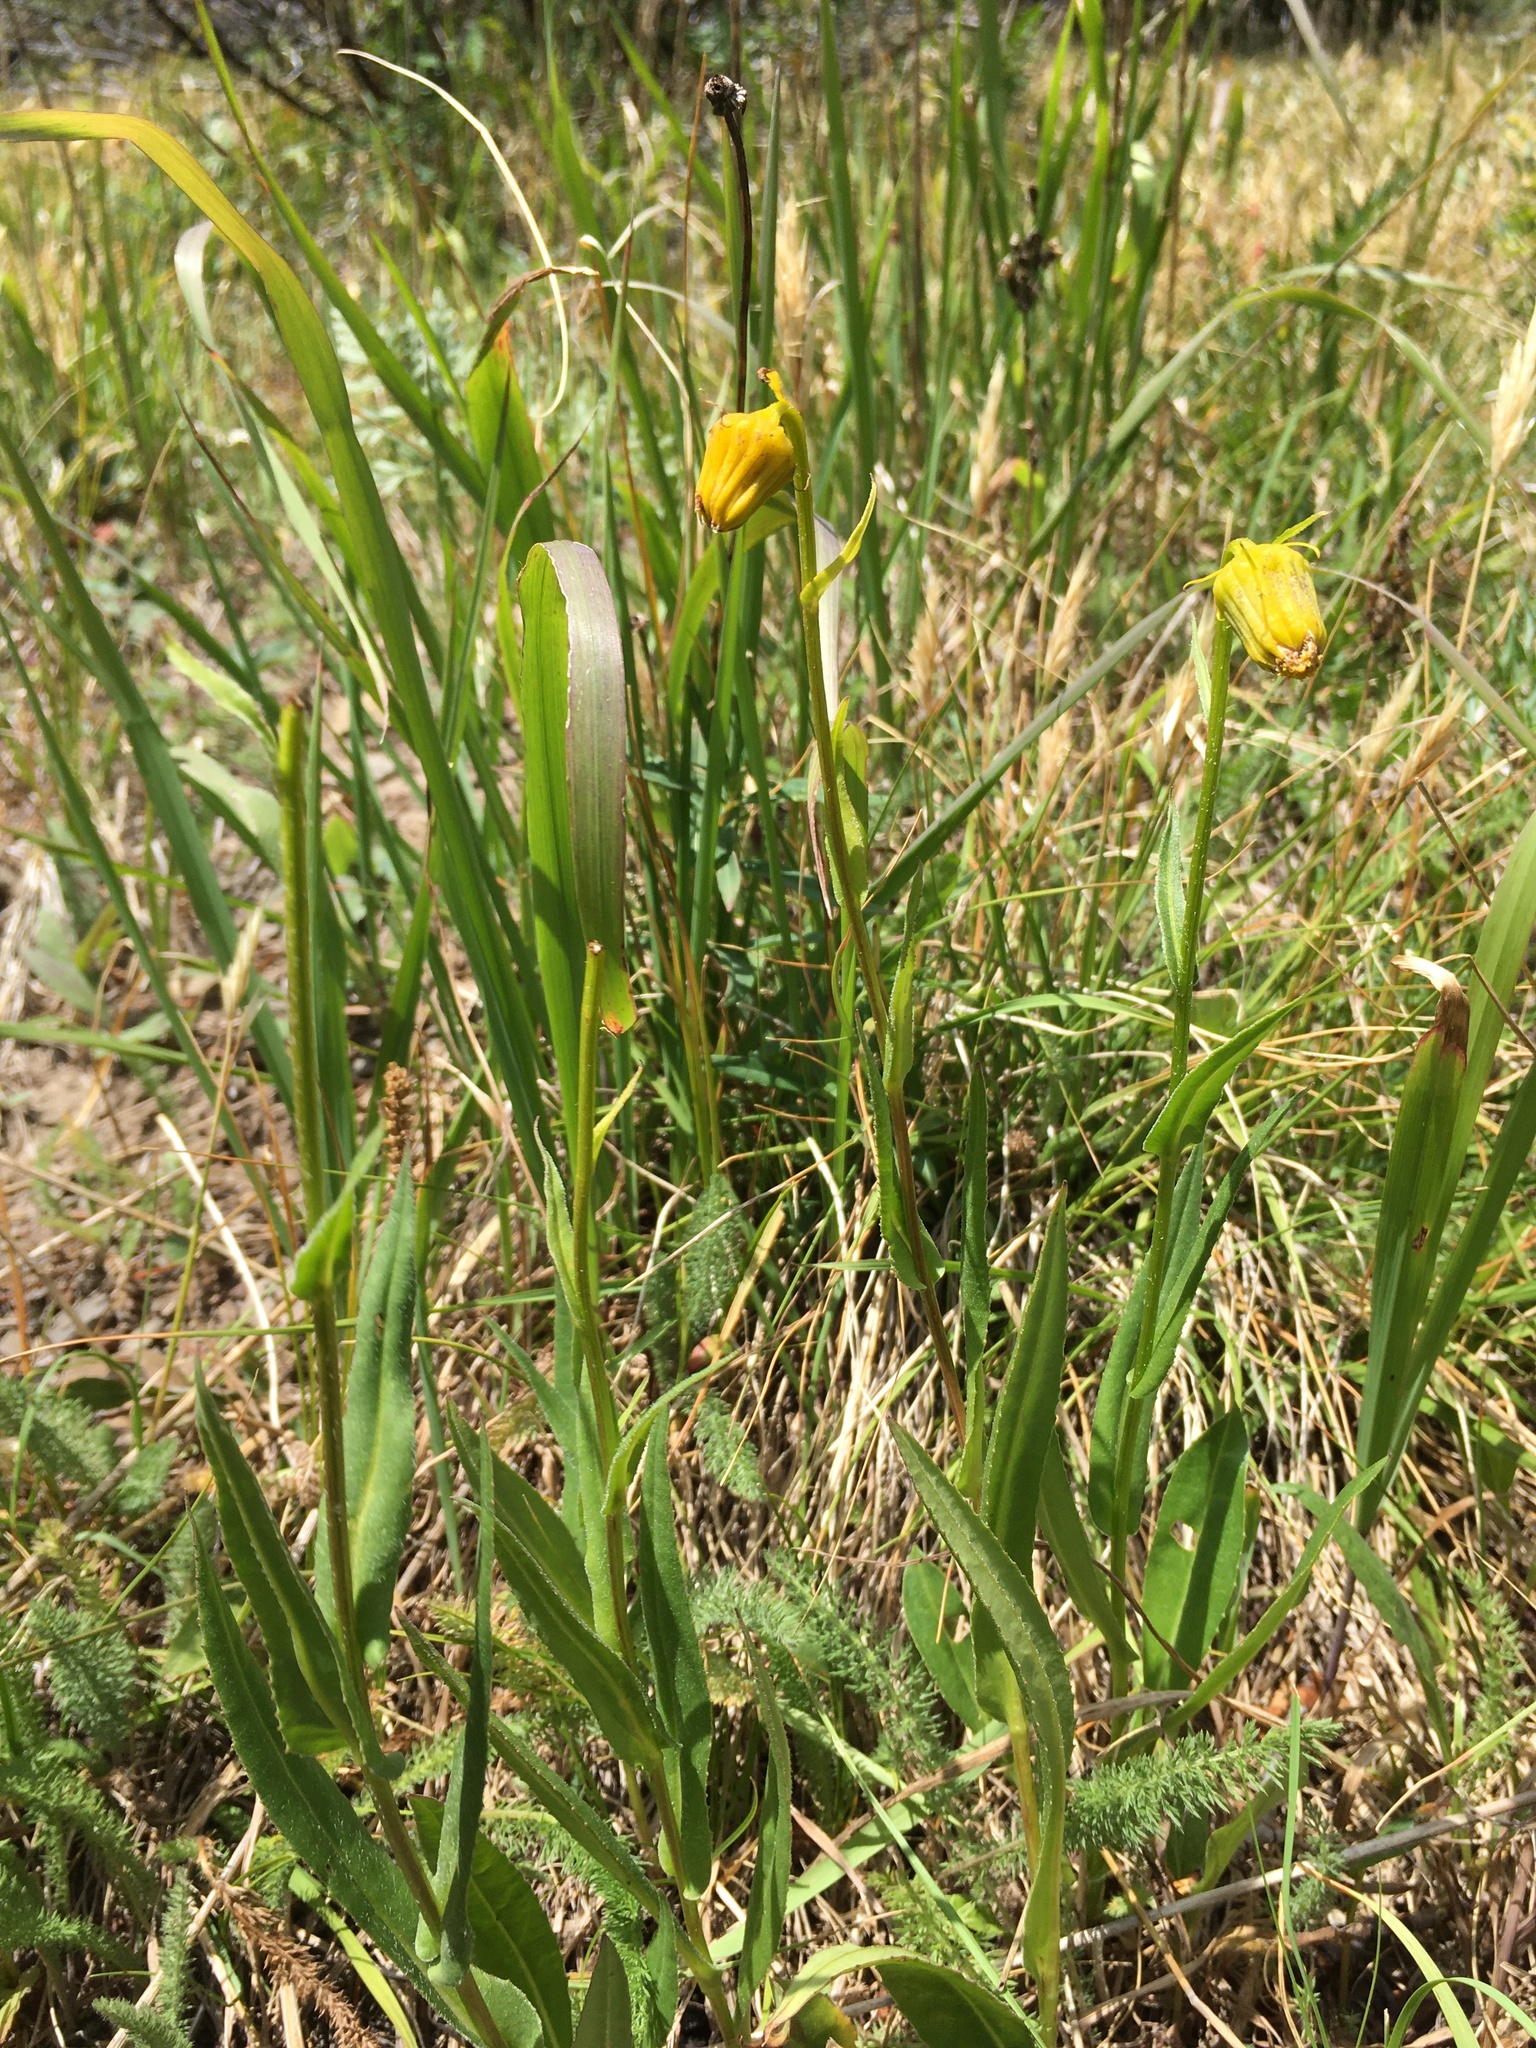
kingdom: Plantae
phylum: Tracheophyta
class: Magnoliopsida
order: Asterales
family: Asteraceae
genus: Senecio
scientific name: Senecio bigelovii
